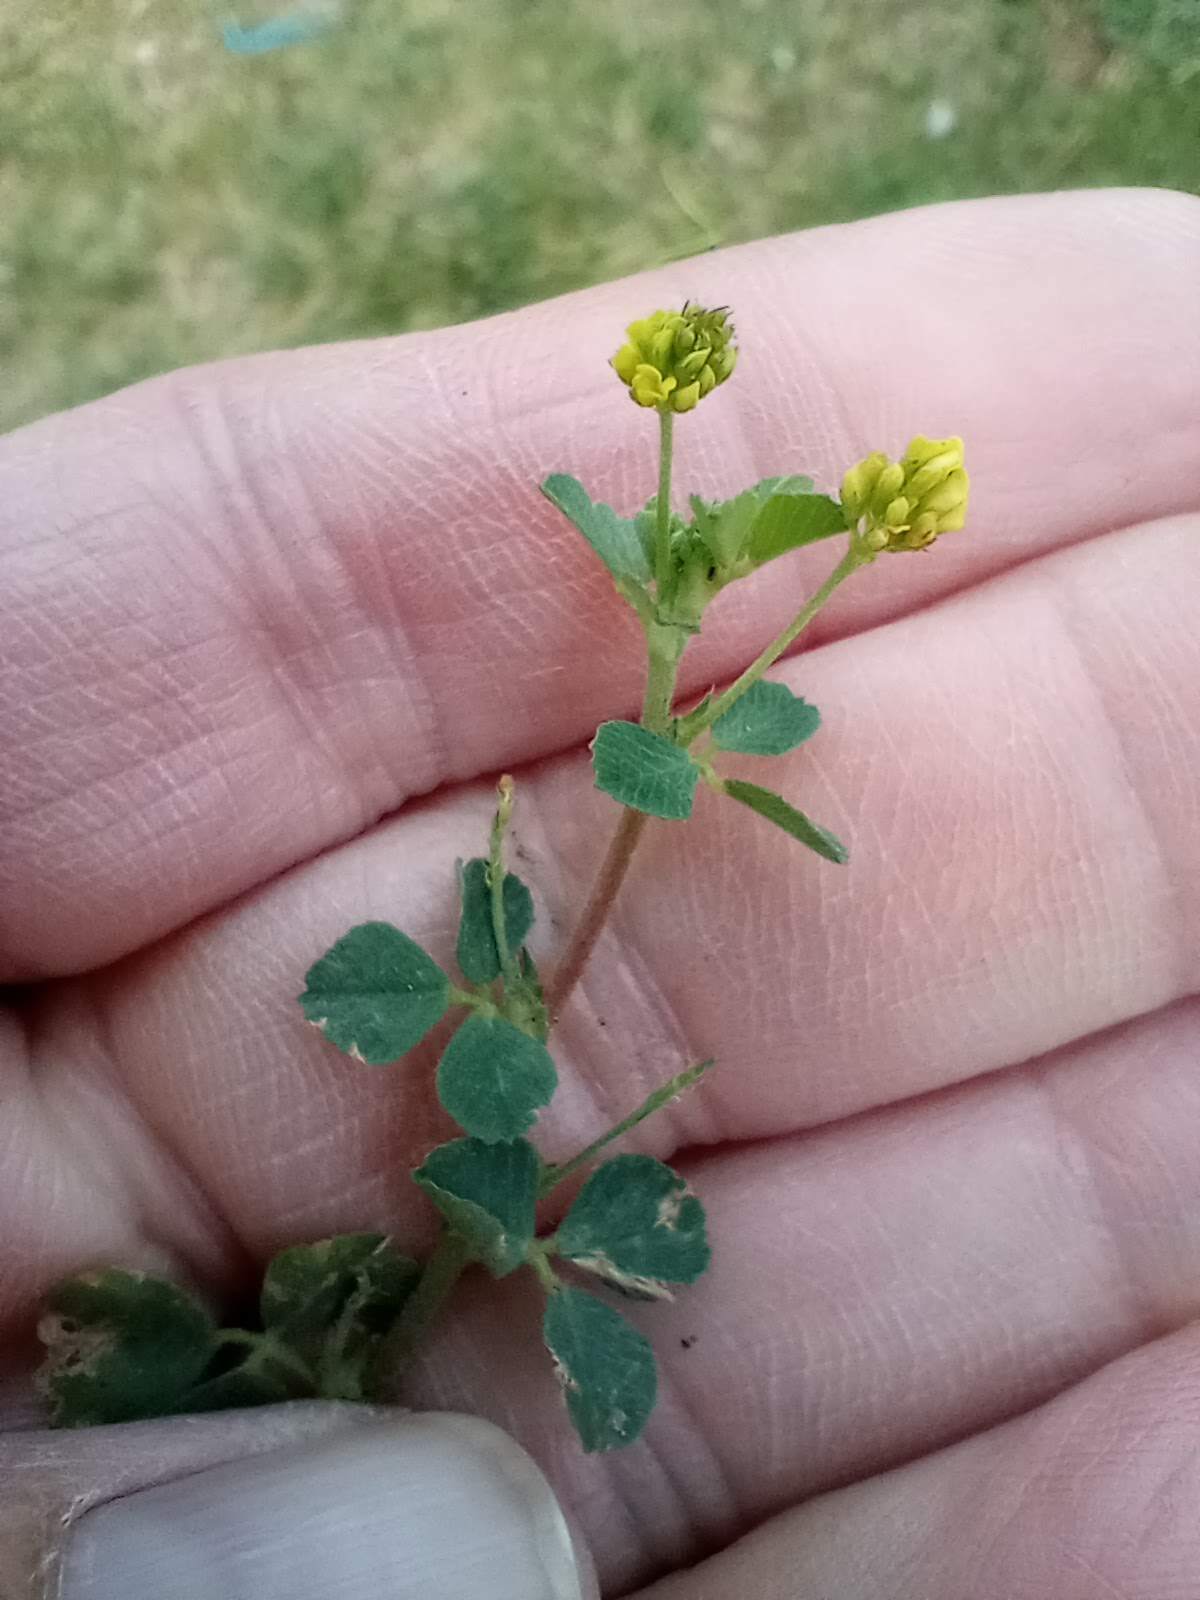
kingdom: Plantae
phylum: Tracheophyta
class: Magnoliopsida
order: Fabales
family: Fabaceae
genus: Medicago
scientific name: Medicago lupulina
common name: Black medick
